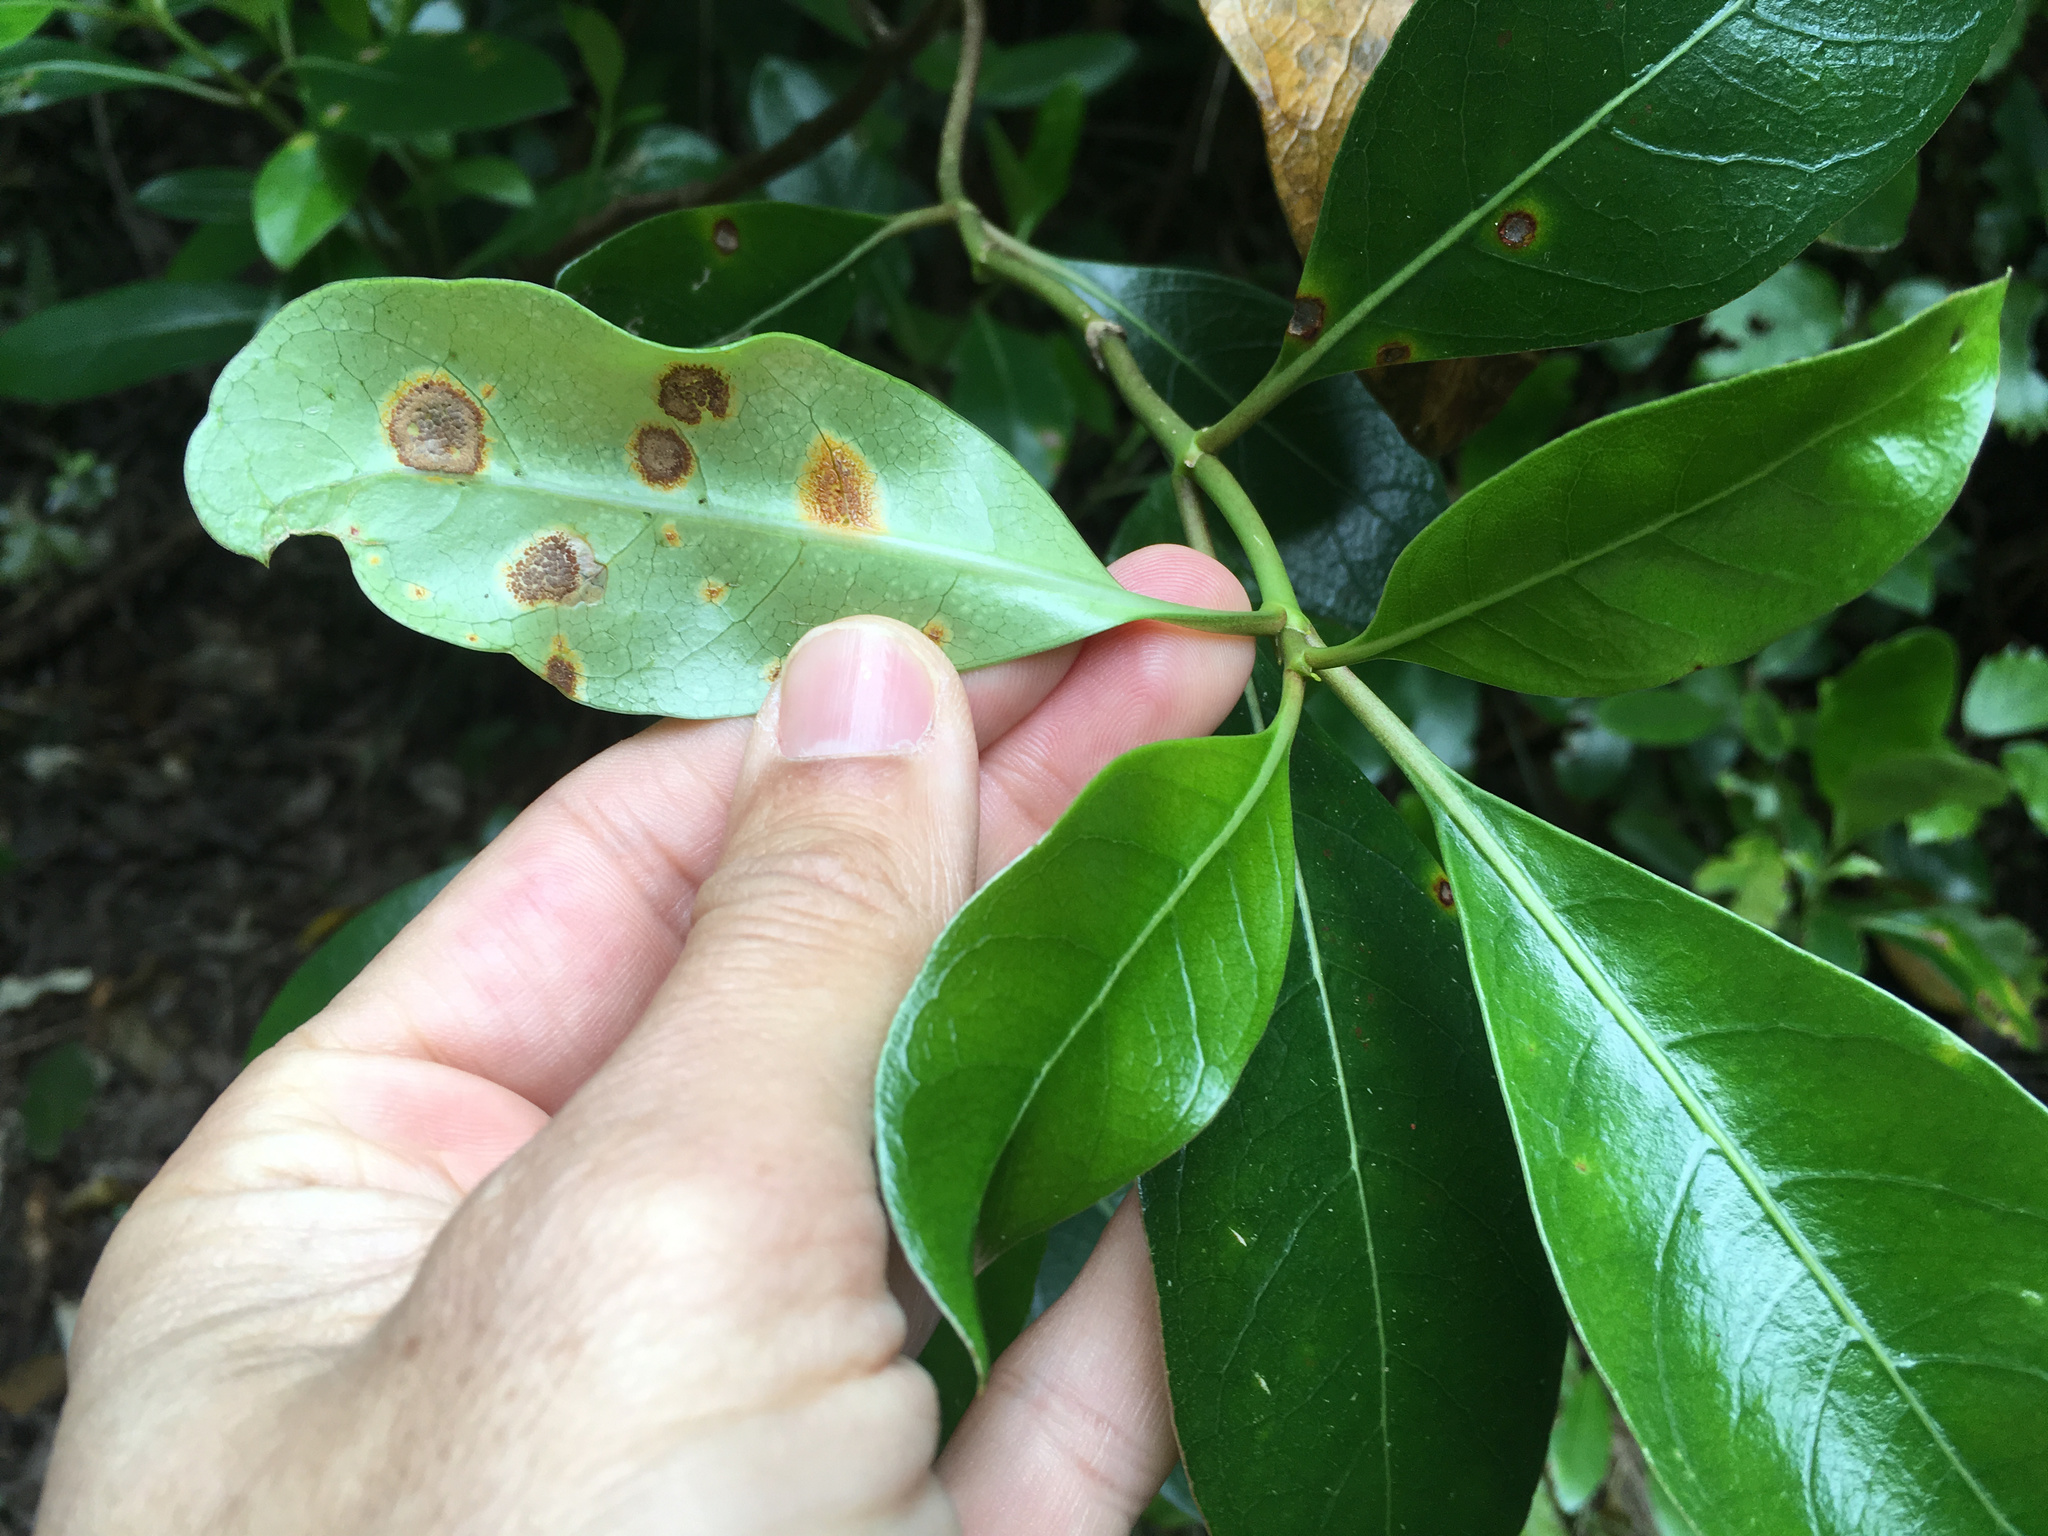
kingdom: Fungi
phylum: Basidiomycota
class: Pucciniomycetes
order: Pucciniales
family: Pucciniaceae
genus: Puccinia
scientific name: Puccinia coprosmae
